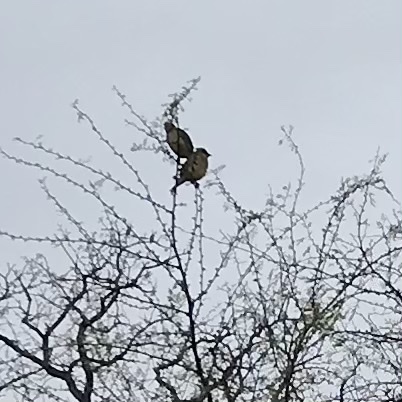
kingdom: Animalia
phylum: Chordata
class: Aves
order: Passeriformes
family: Bombycillidae
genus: Bombycilla
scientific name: Bombycilla cedrorum
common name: Cedar waxwing
